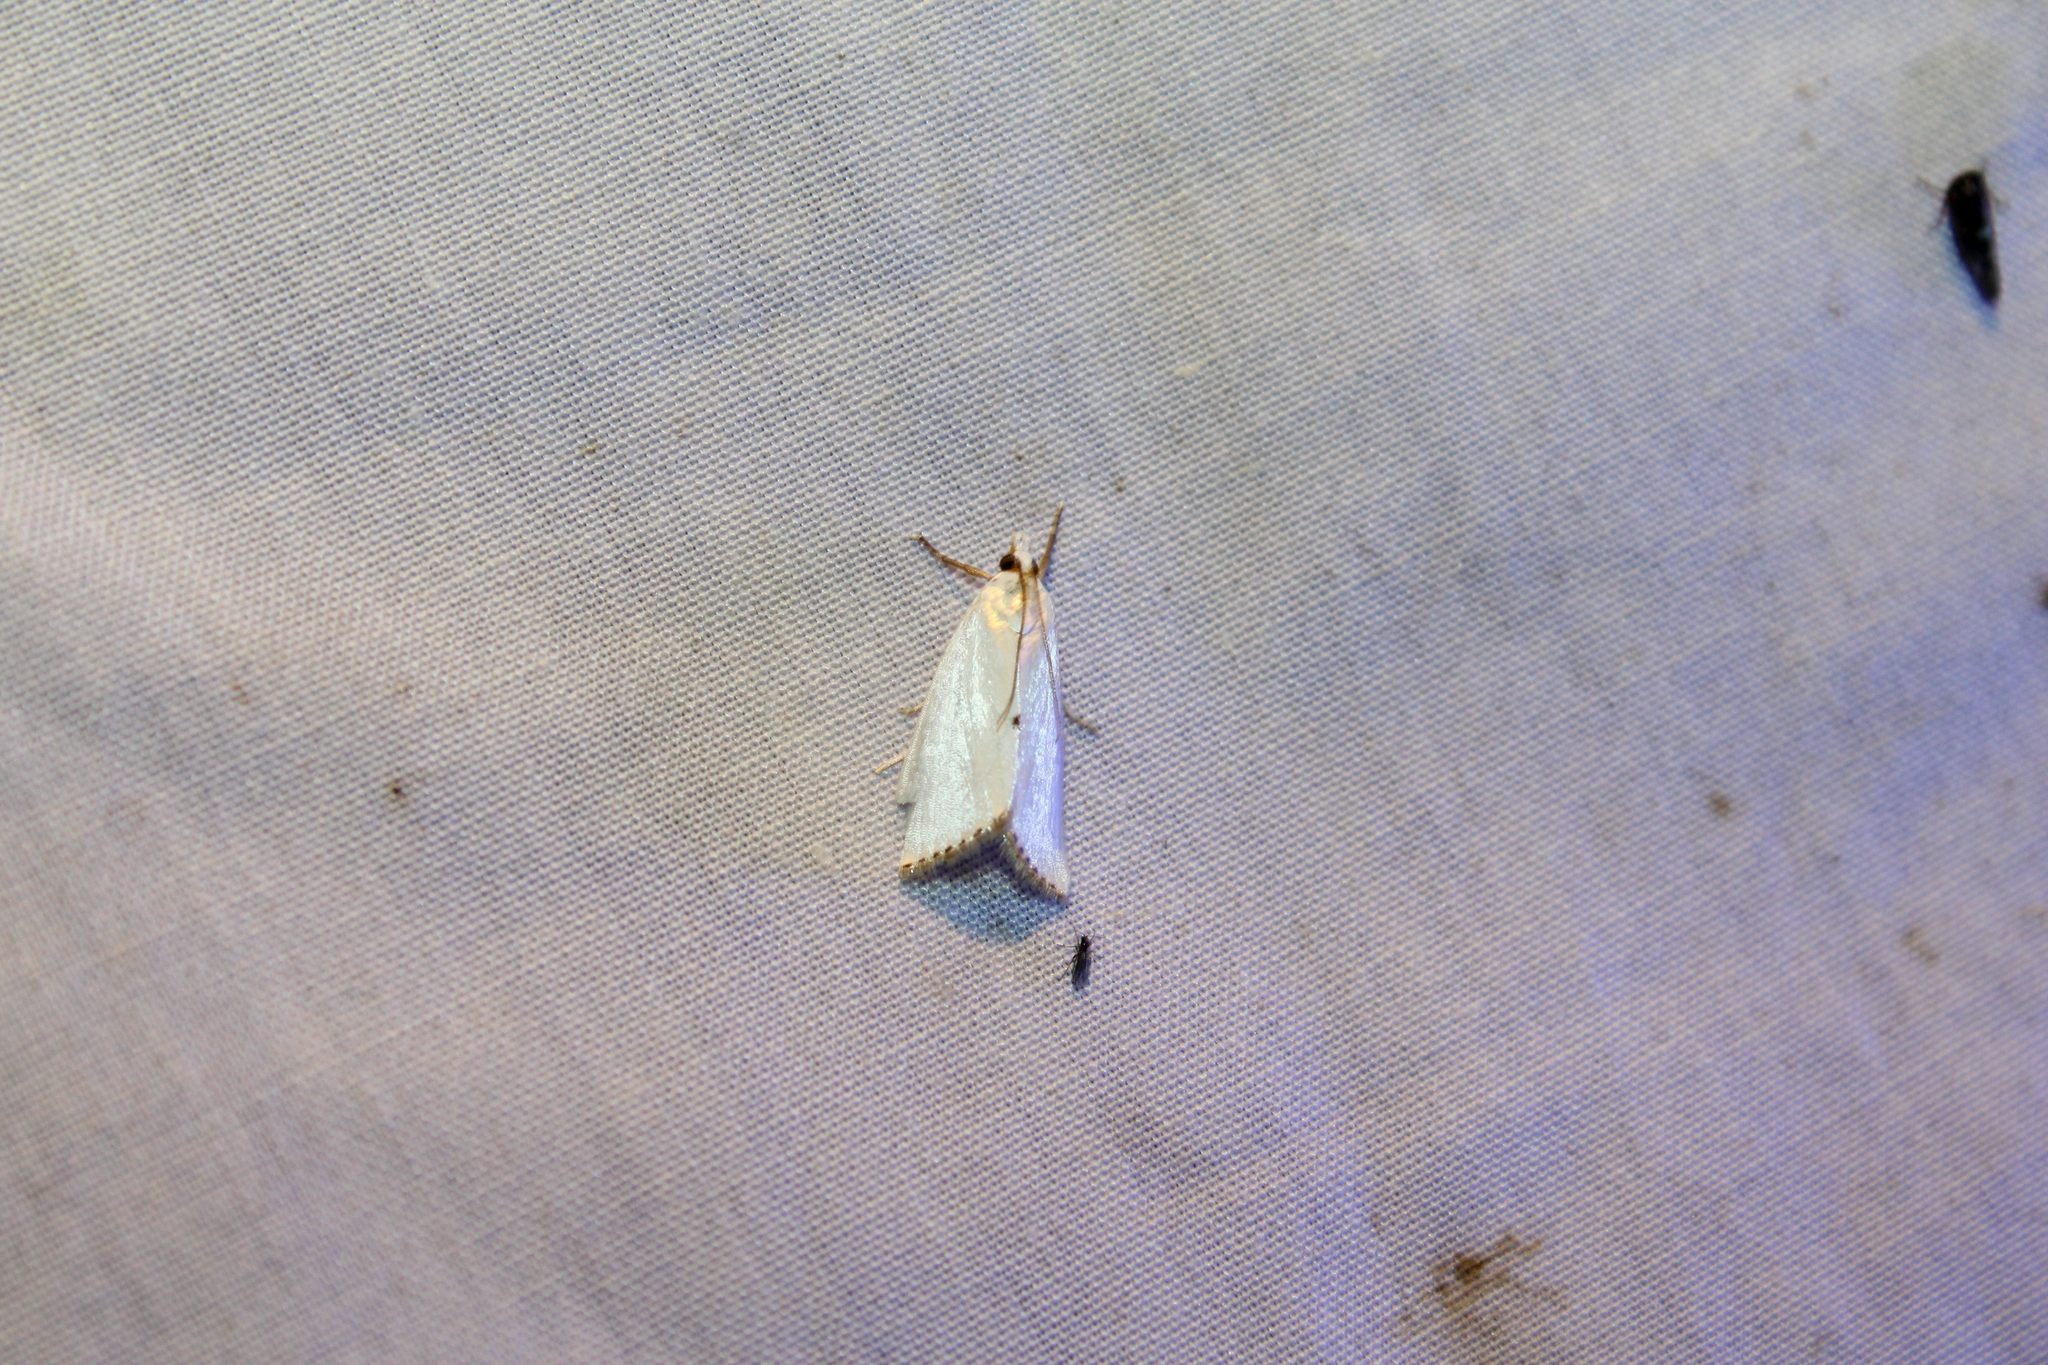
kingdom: Animalia
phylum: Arthropoda
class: Insecta
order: Lepidoptera
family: Crambidae
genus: Argyria
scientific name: Argyria nivalis
